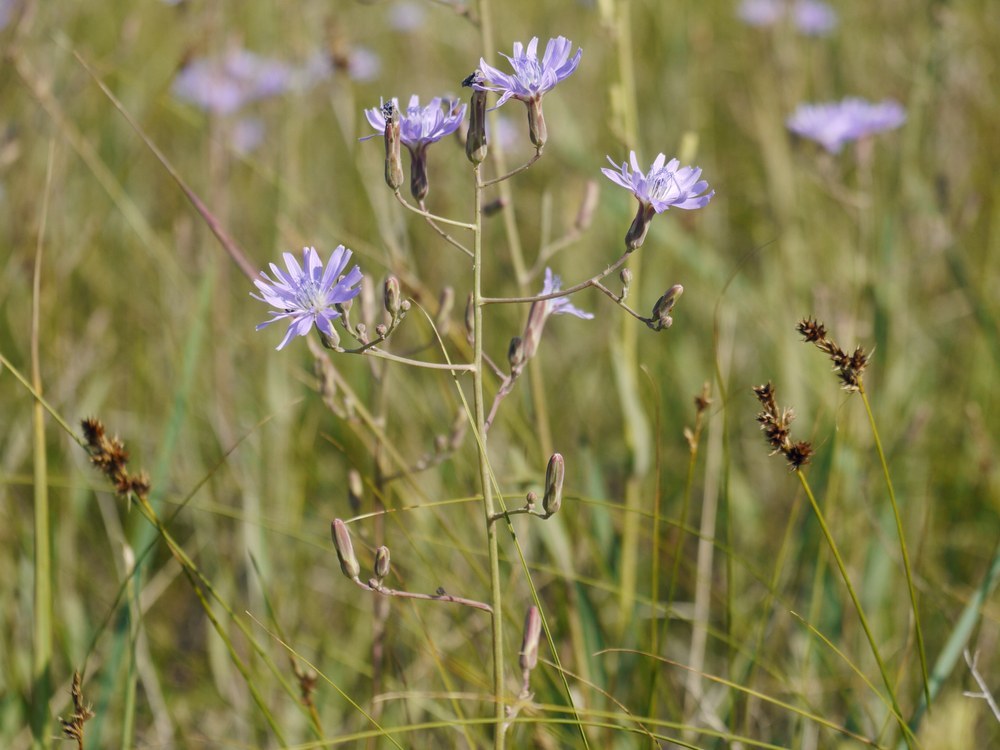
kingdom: Plantae
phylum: Tracheophyta
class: Magnoliopsida
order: Asterales
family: Asteraceae
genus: Lactuca
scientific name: Lactuca tatarica
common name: Blue lettuce
